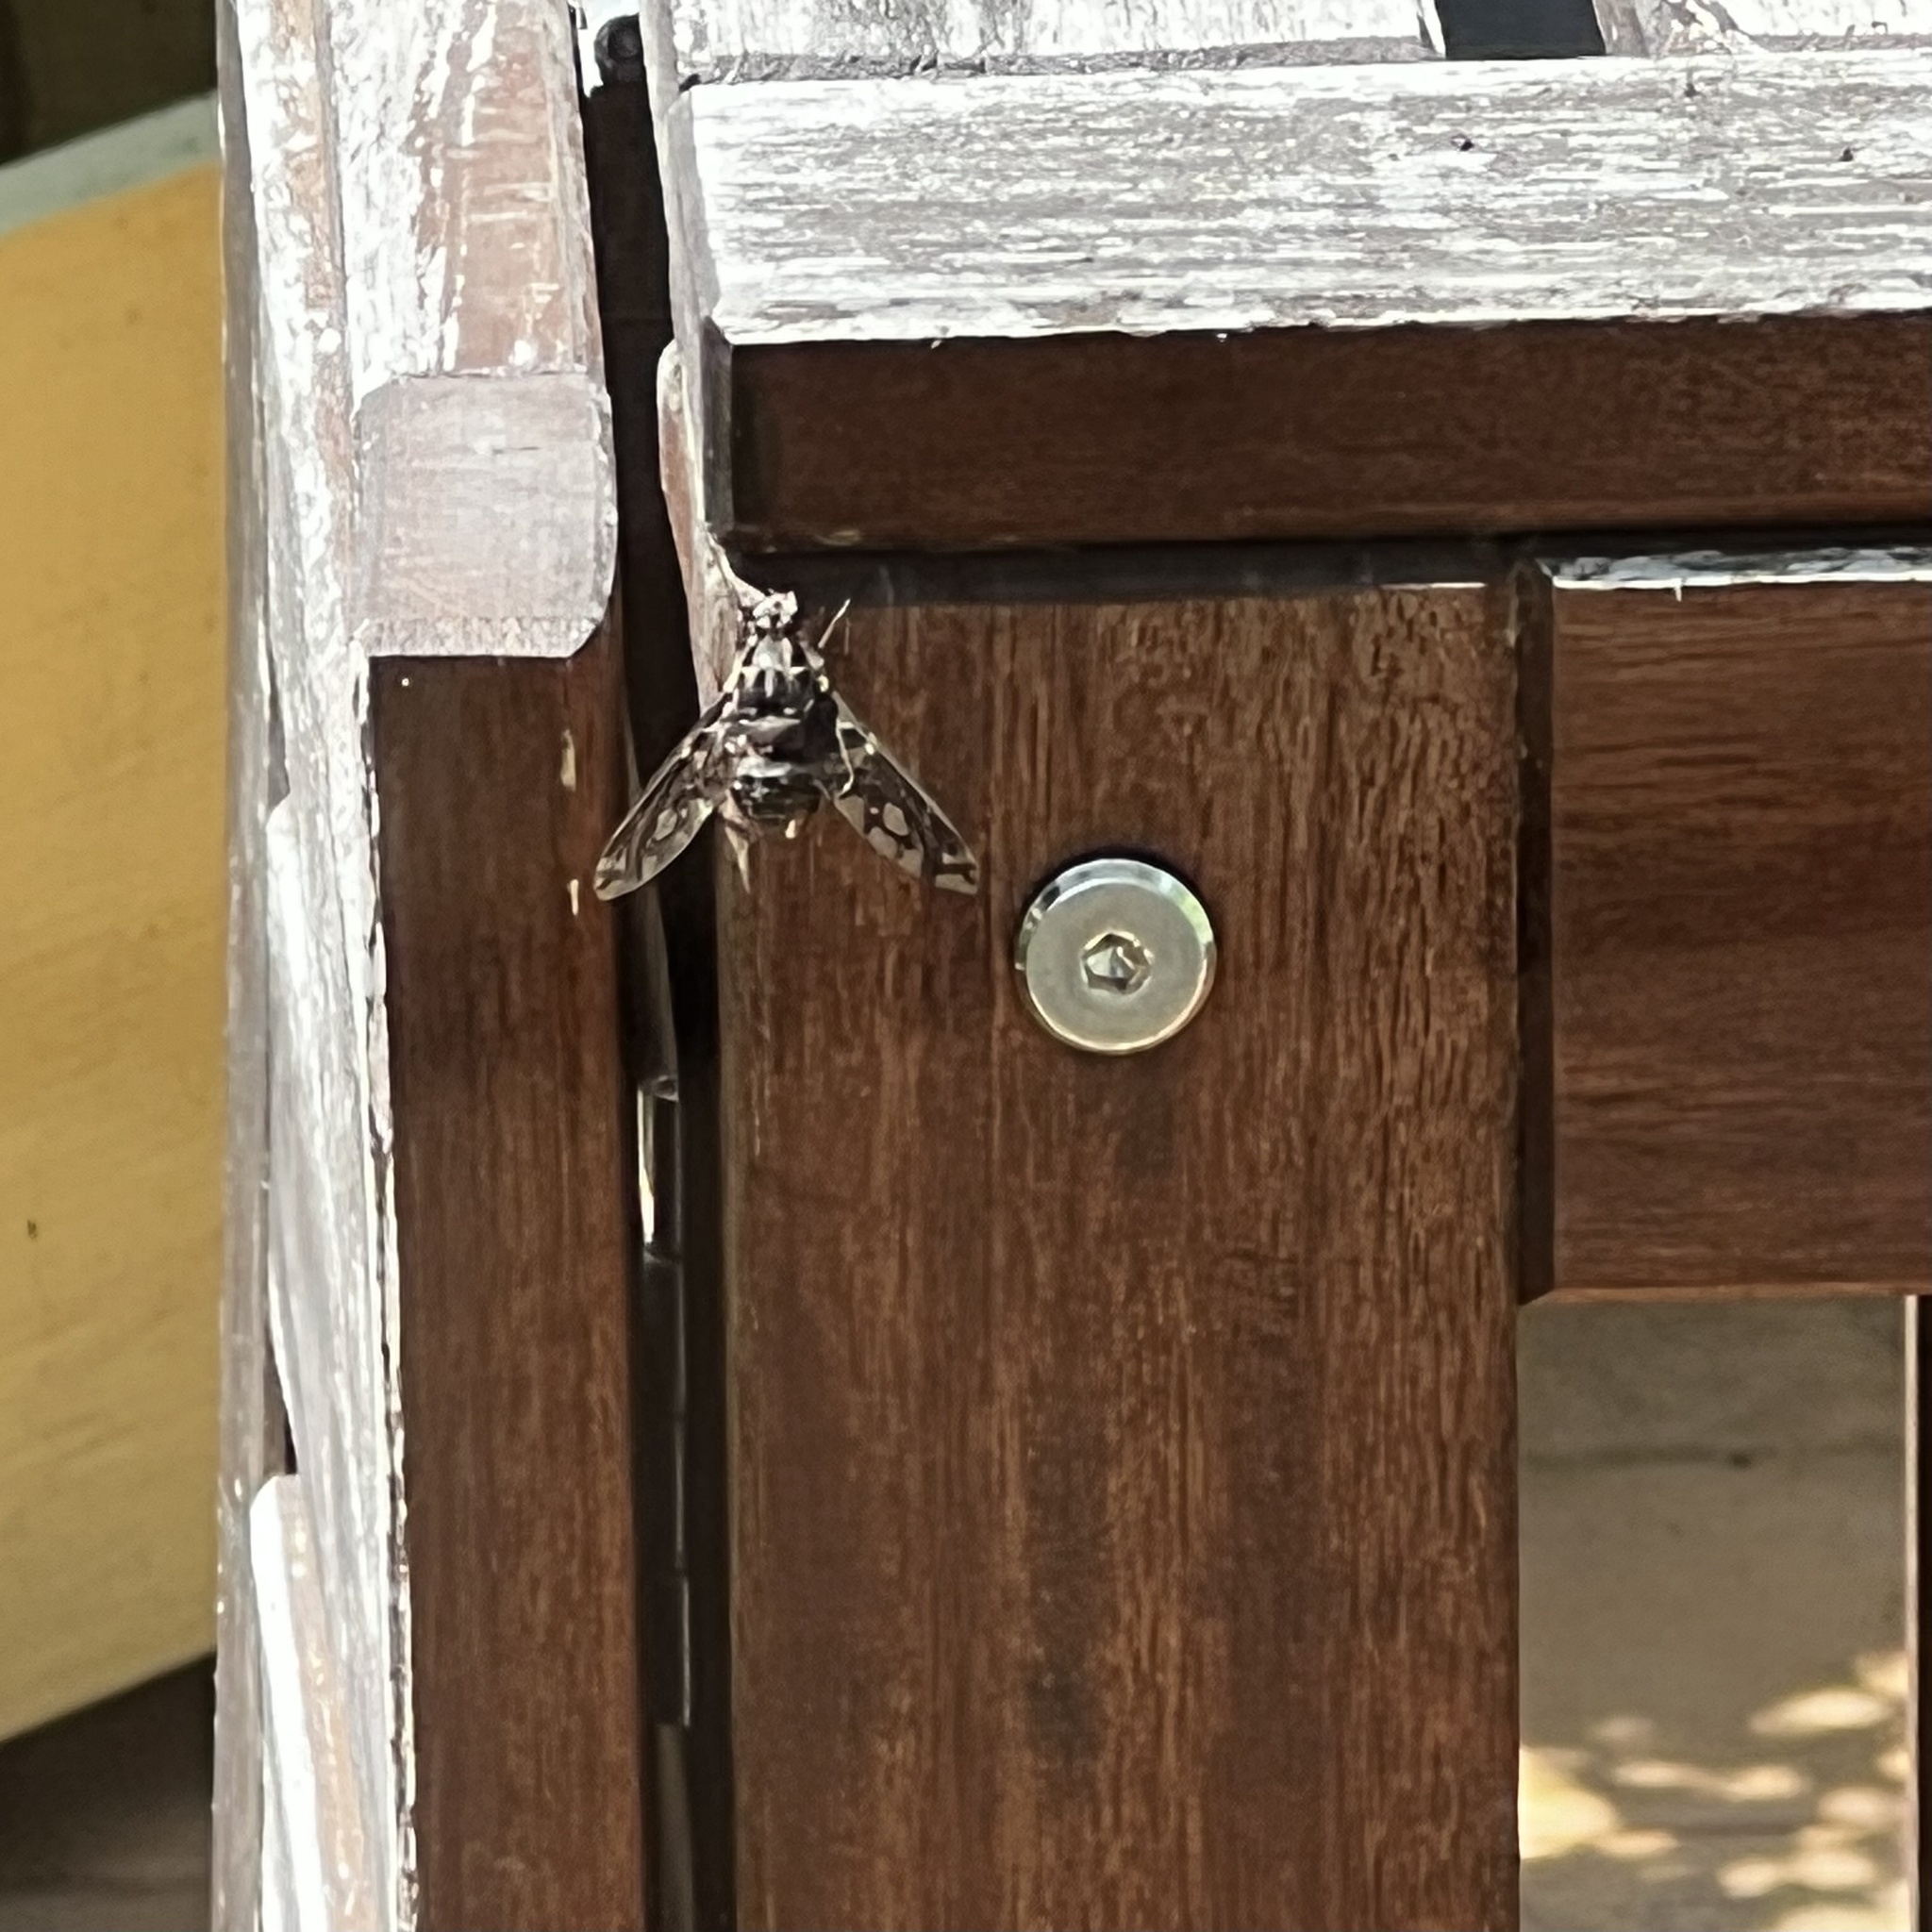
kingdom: Animalia
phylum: Arthropoda
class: Insecta
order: Diptera
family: Bombyliidae
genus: Xenox
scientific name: Xenox tigrinus
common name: Tiger bee fly
